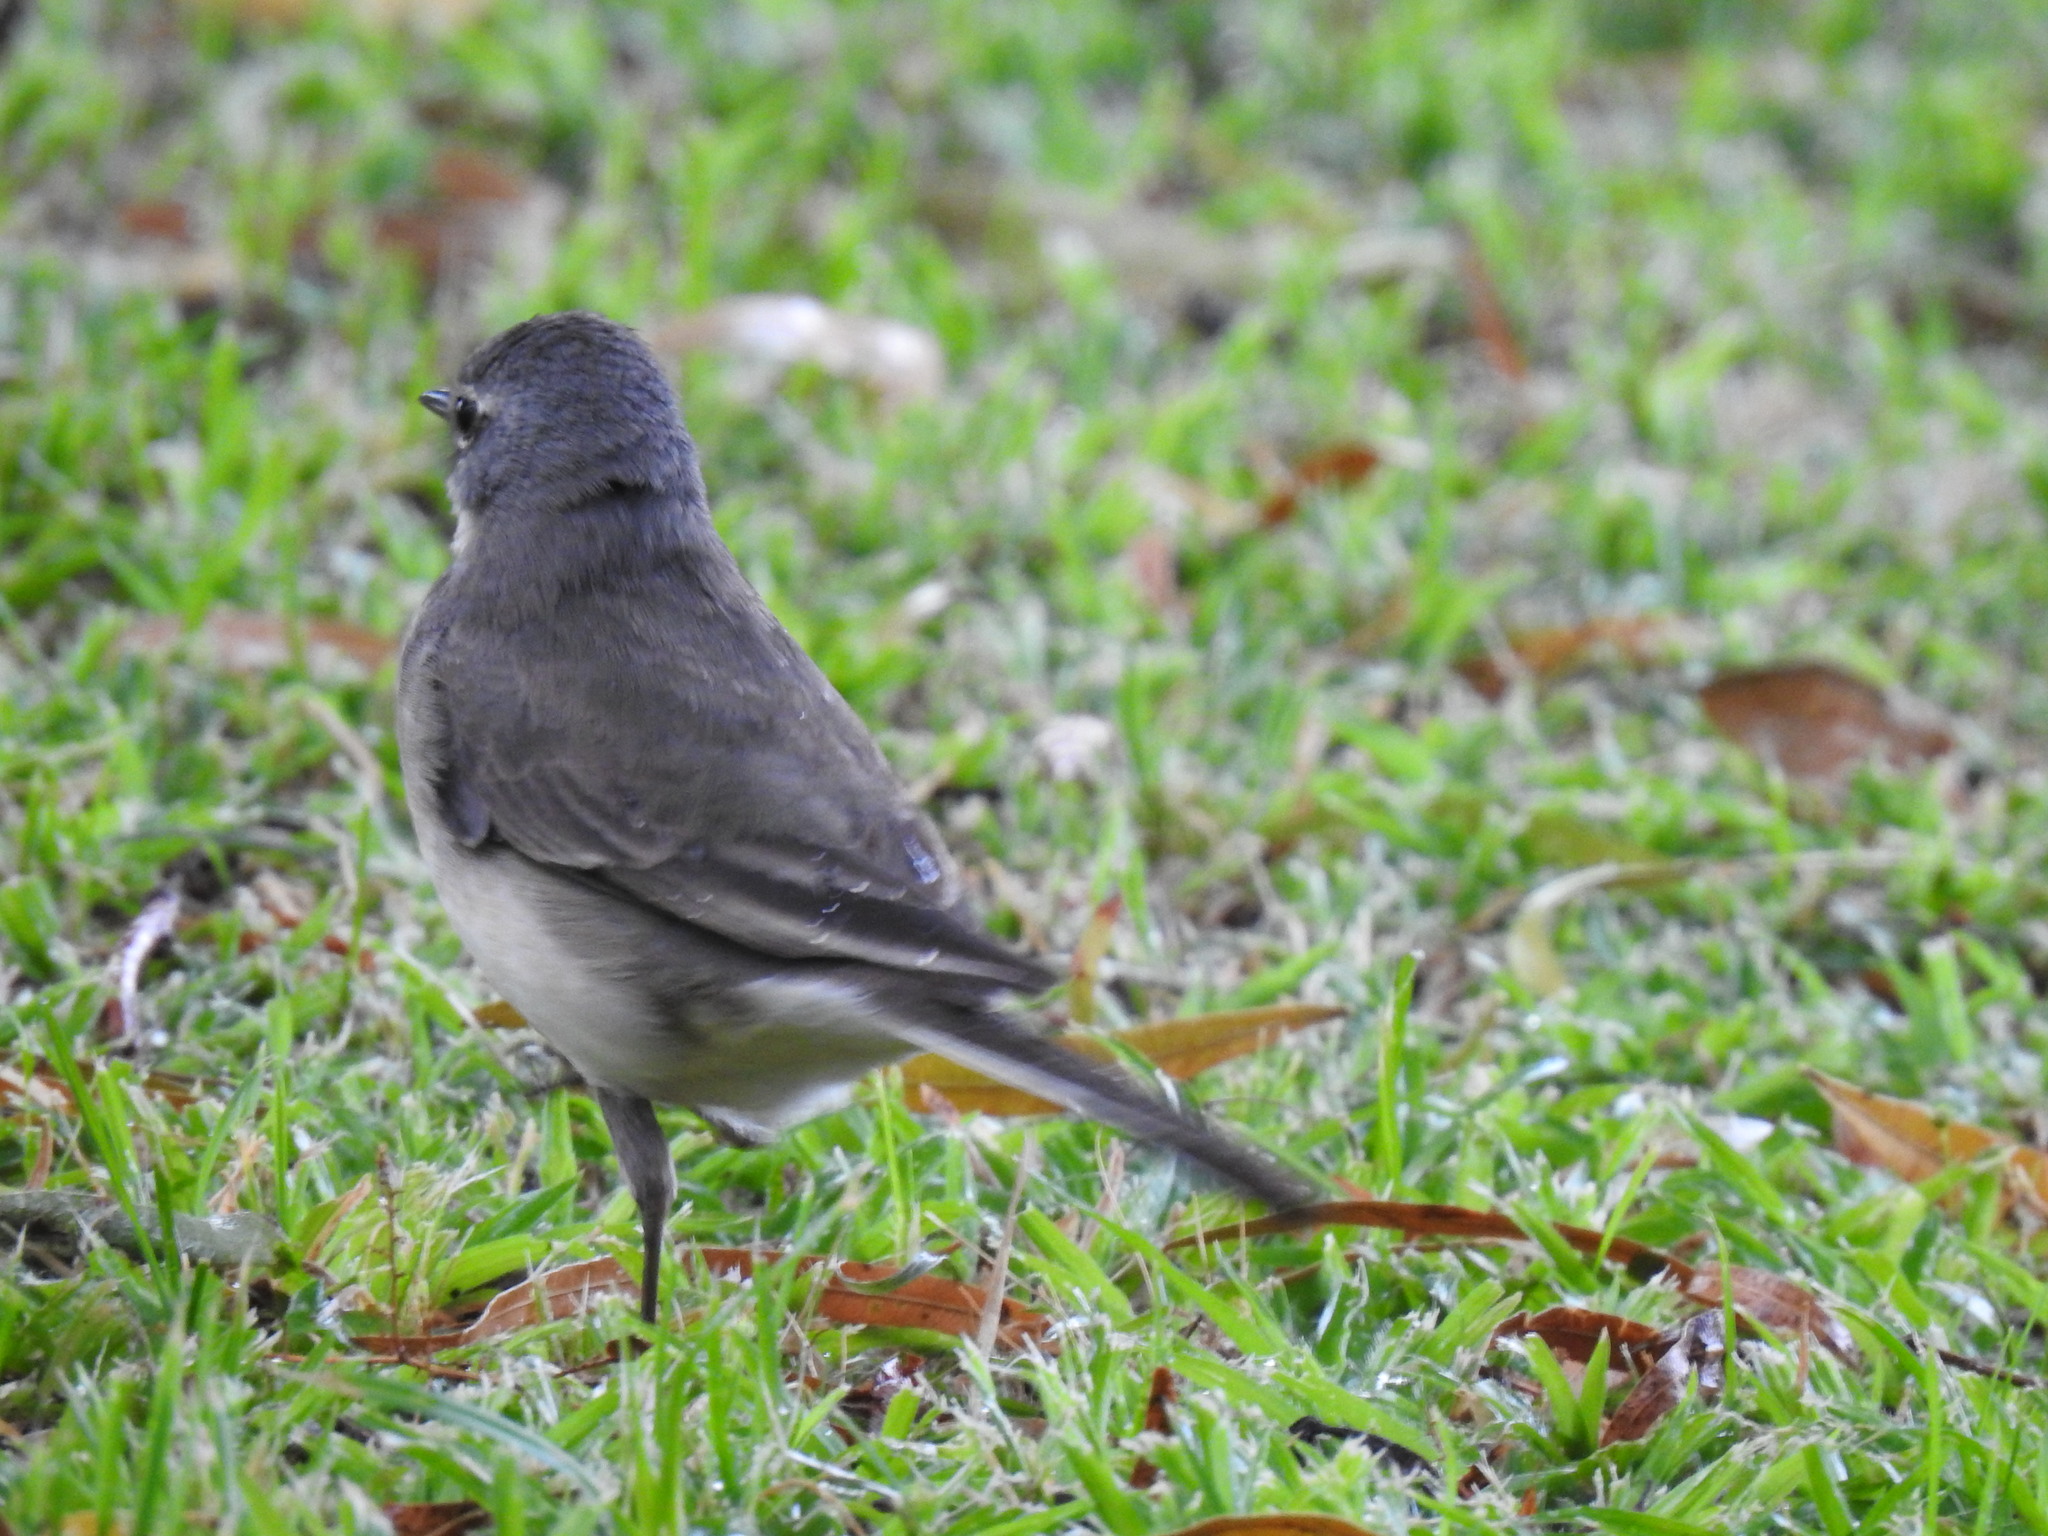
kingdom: Animalia
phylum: Chordata
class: Aves
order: Passeriformes
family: Motacillidae
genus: Motacilla
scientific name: Motacilla capensis
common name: Cape wagtail
